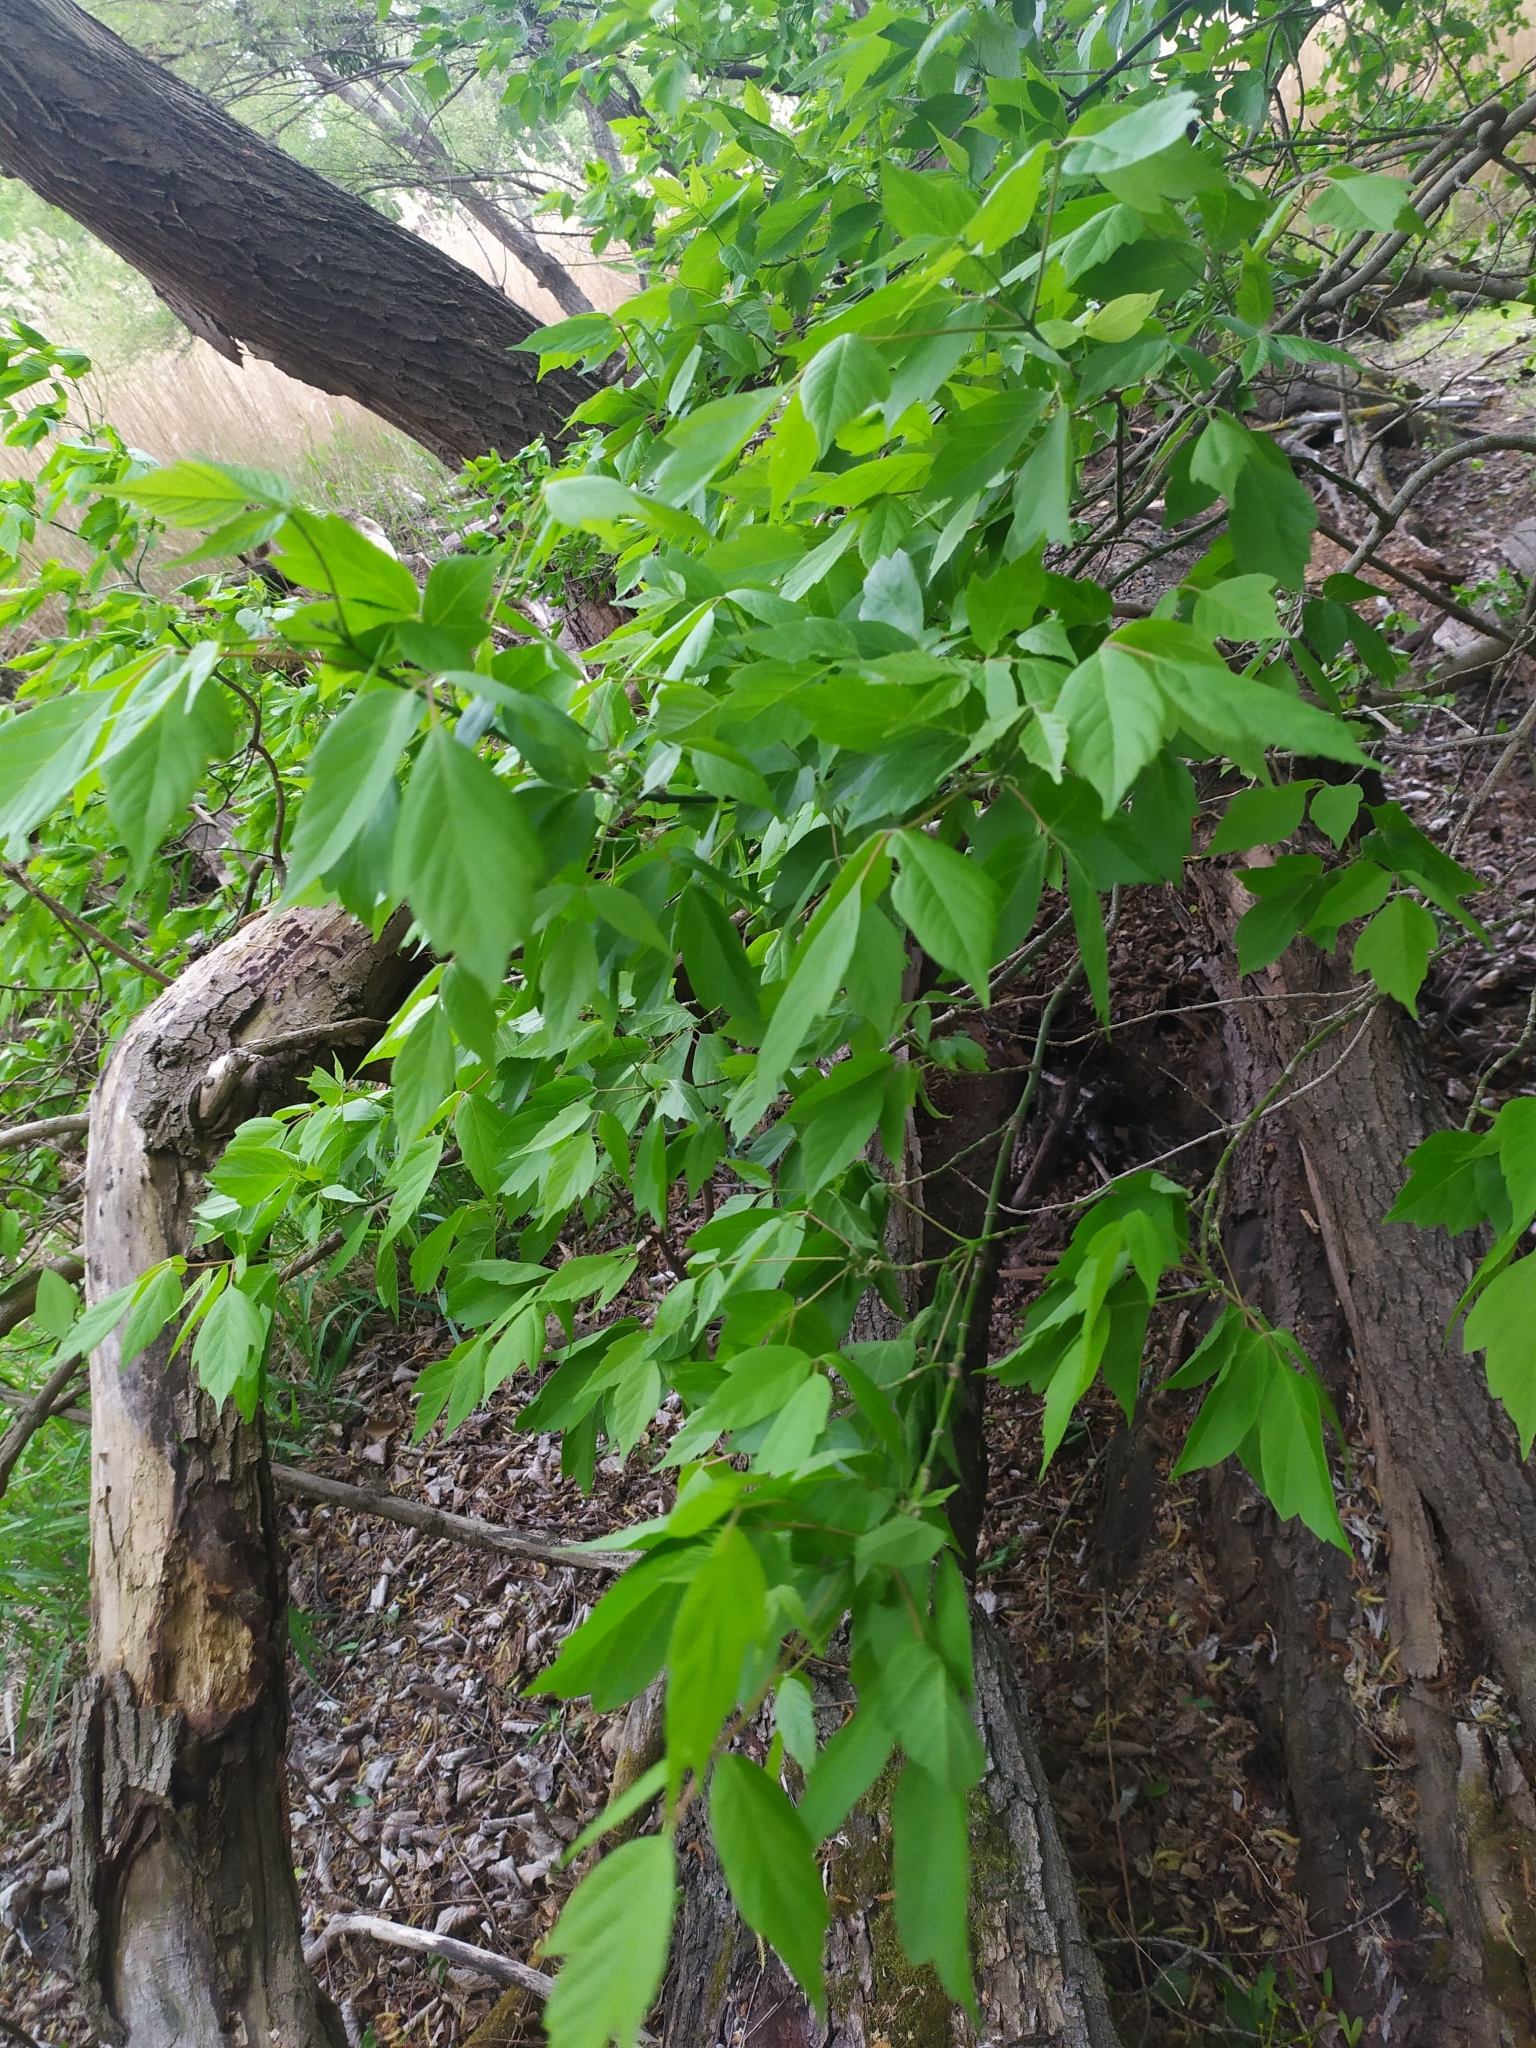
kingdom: Plantae
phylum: Tracheophyta
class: Magnoliopsida
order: Sapindales
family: Sapindaceae
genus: Acer
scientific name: Acer negundo
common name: Ashleaf maple
